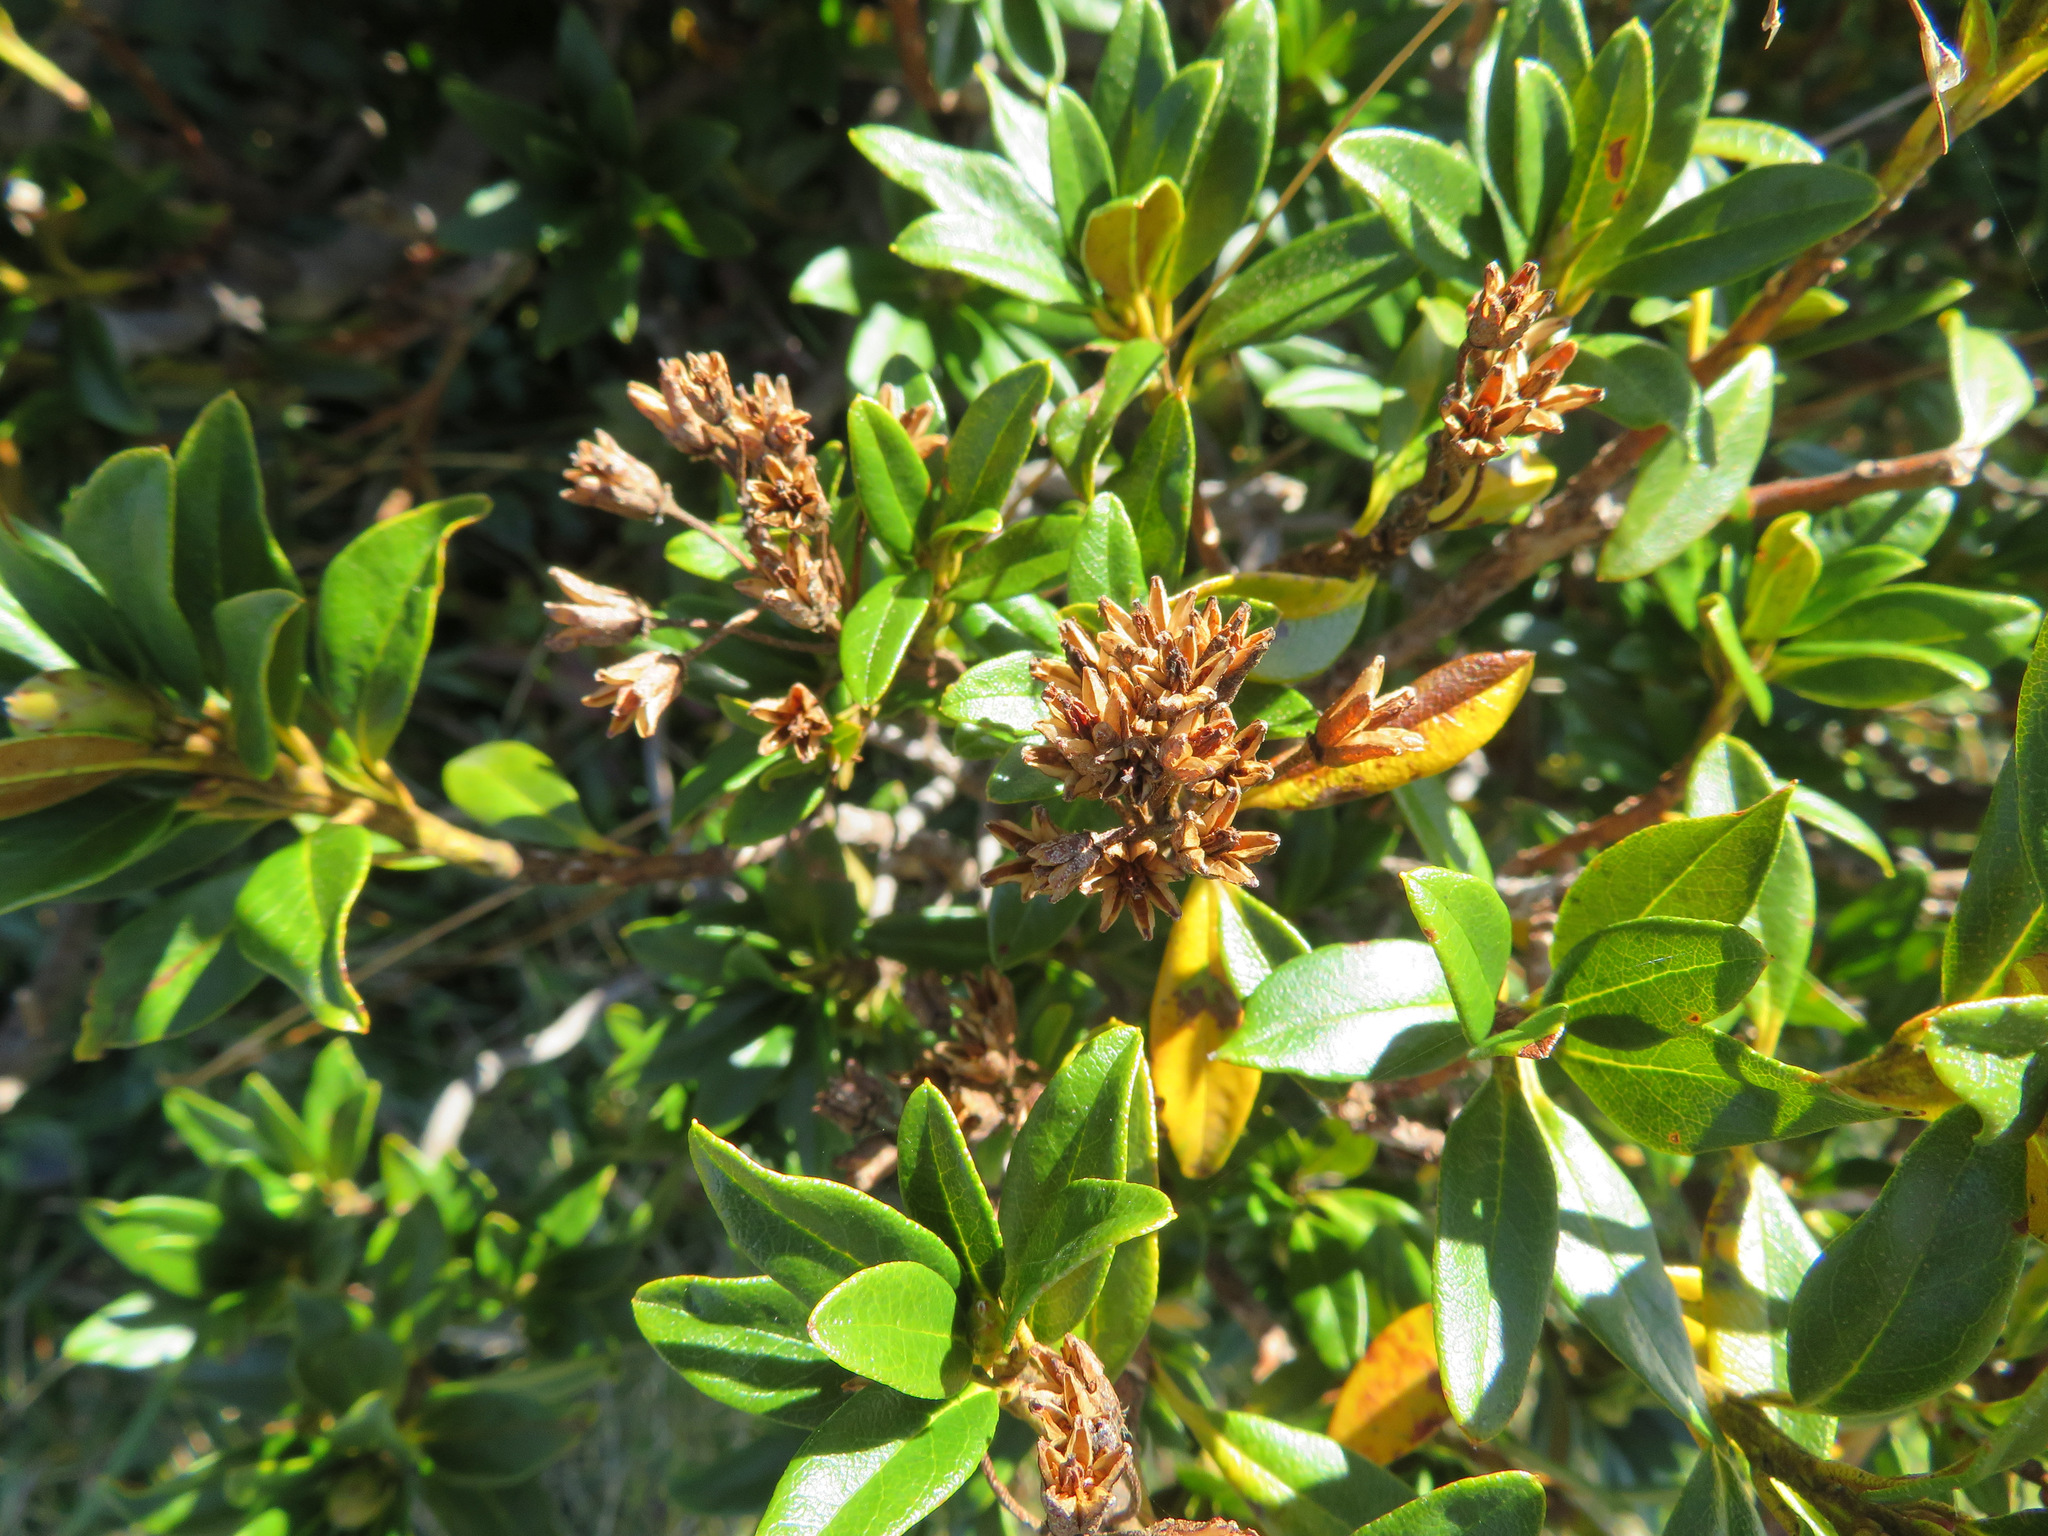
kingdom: Plantae
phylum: Tracheophyta
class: Magnoliopsida
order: Ericales
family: Ericaceae
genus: Rhododendron
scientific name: Rhododendron ferrugineum
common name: Alpenrose
